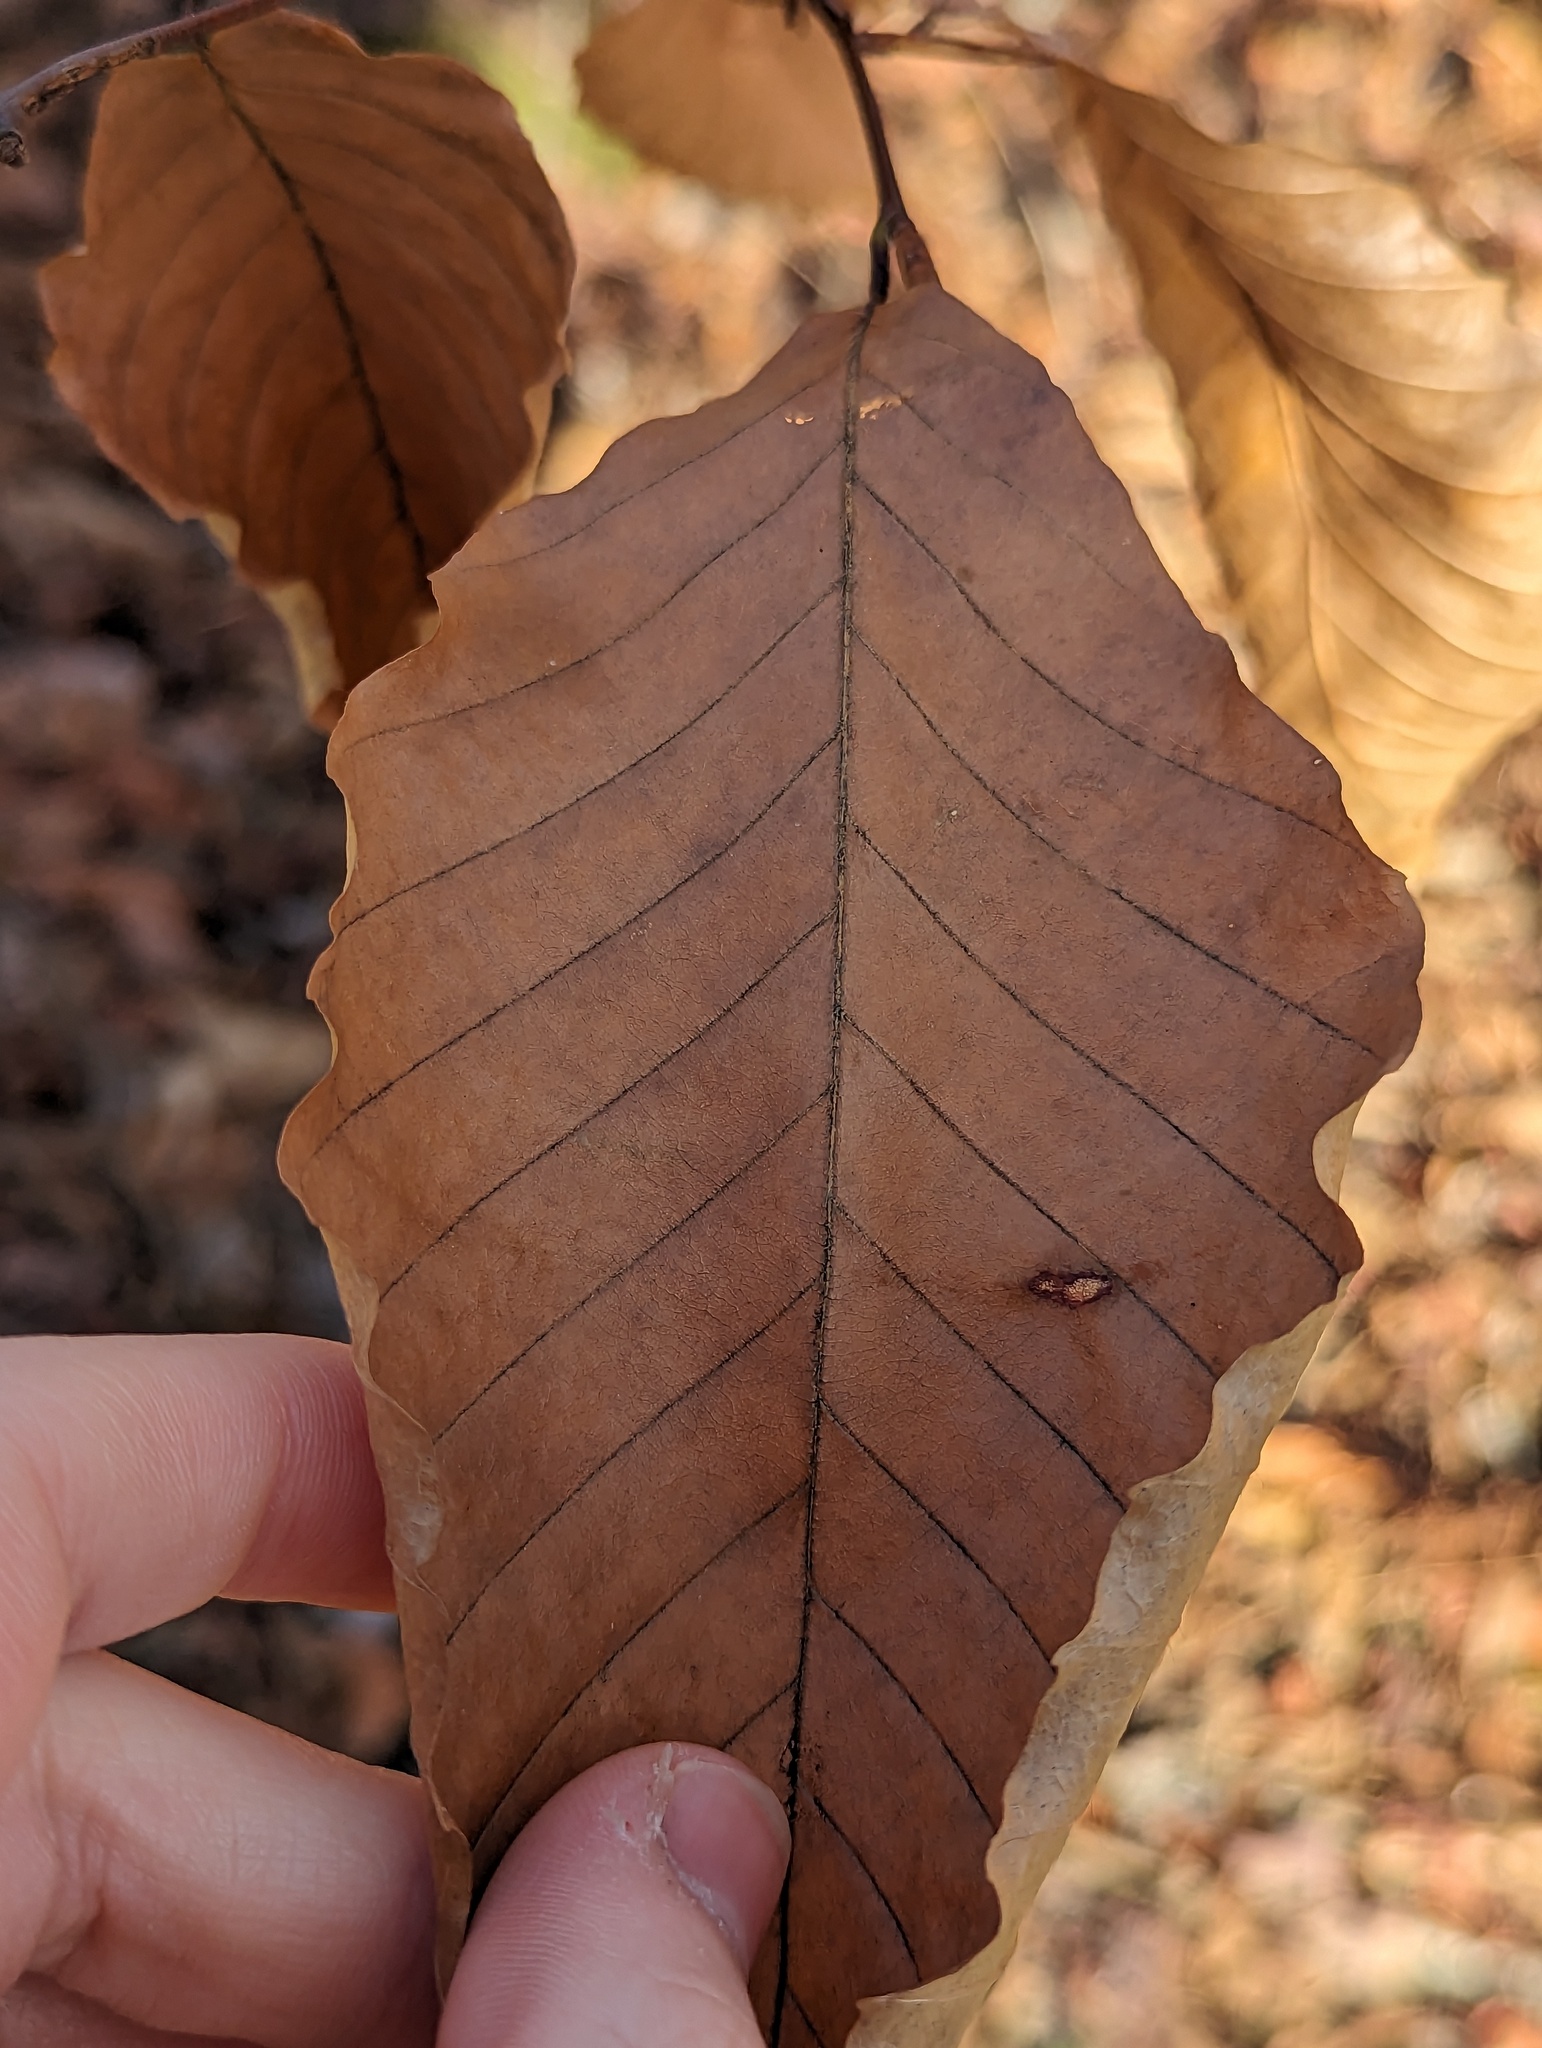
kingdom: Plantae
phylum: Tracheophyta
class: Magnoliopsida
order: Fagales
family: Fagaceae
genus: Fagus
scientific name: Fagus grandifolia
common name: American beech
